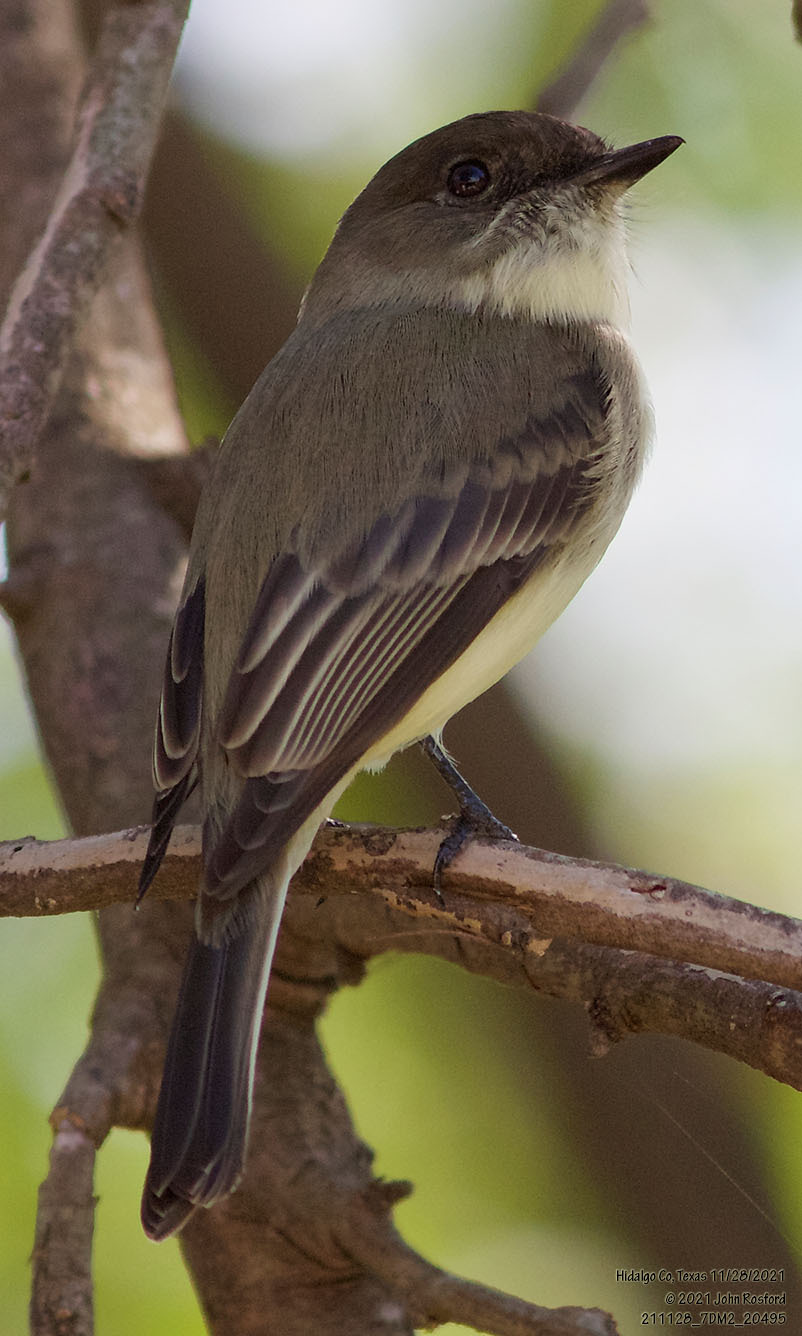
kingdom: Animalia
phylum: Chordata
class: Aves
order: Passeriformes
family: Tyrannidae
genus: Sayornis
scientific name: Sayornis phoebe
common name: Eastern phoebe
